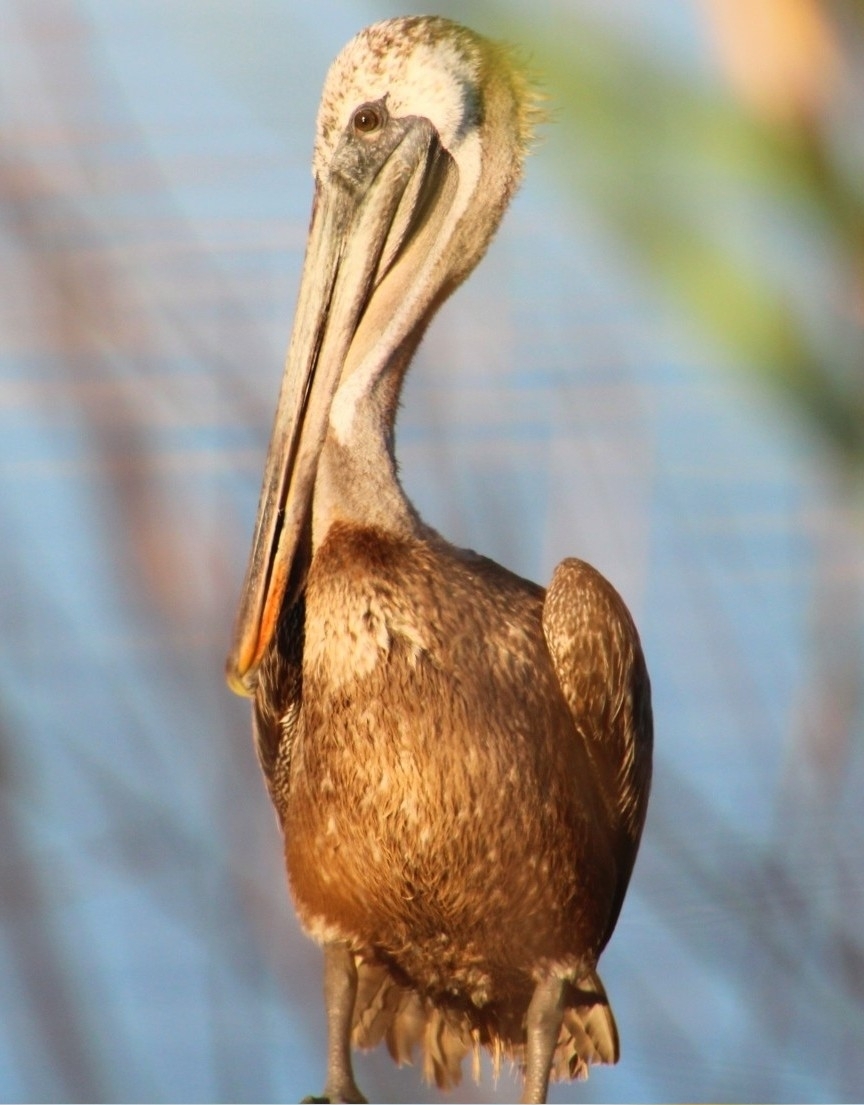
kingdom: Animalia
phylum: Chordata
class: Aves
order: Pelecaniformes
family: Pelecanidae
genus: Pelecanus
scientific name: Pelecanus occidentalis
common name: Brown pelican
